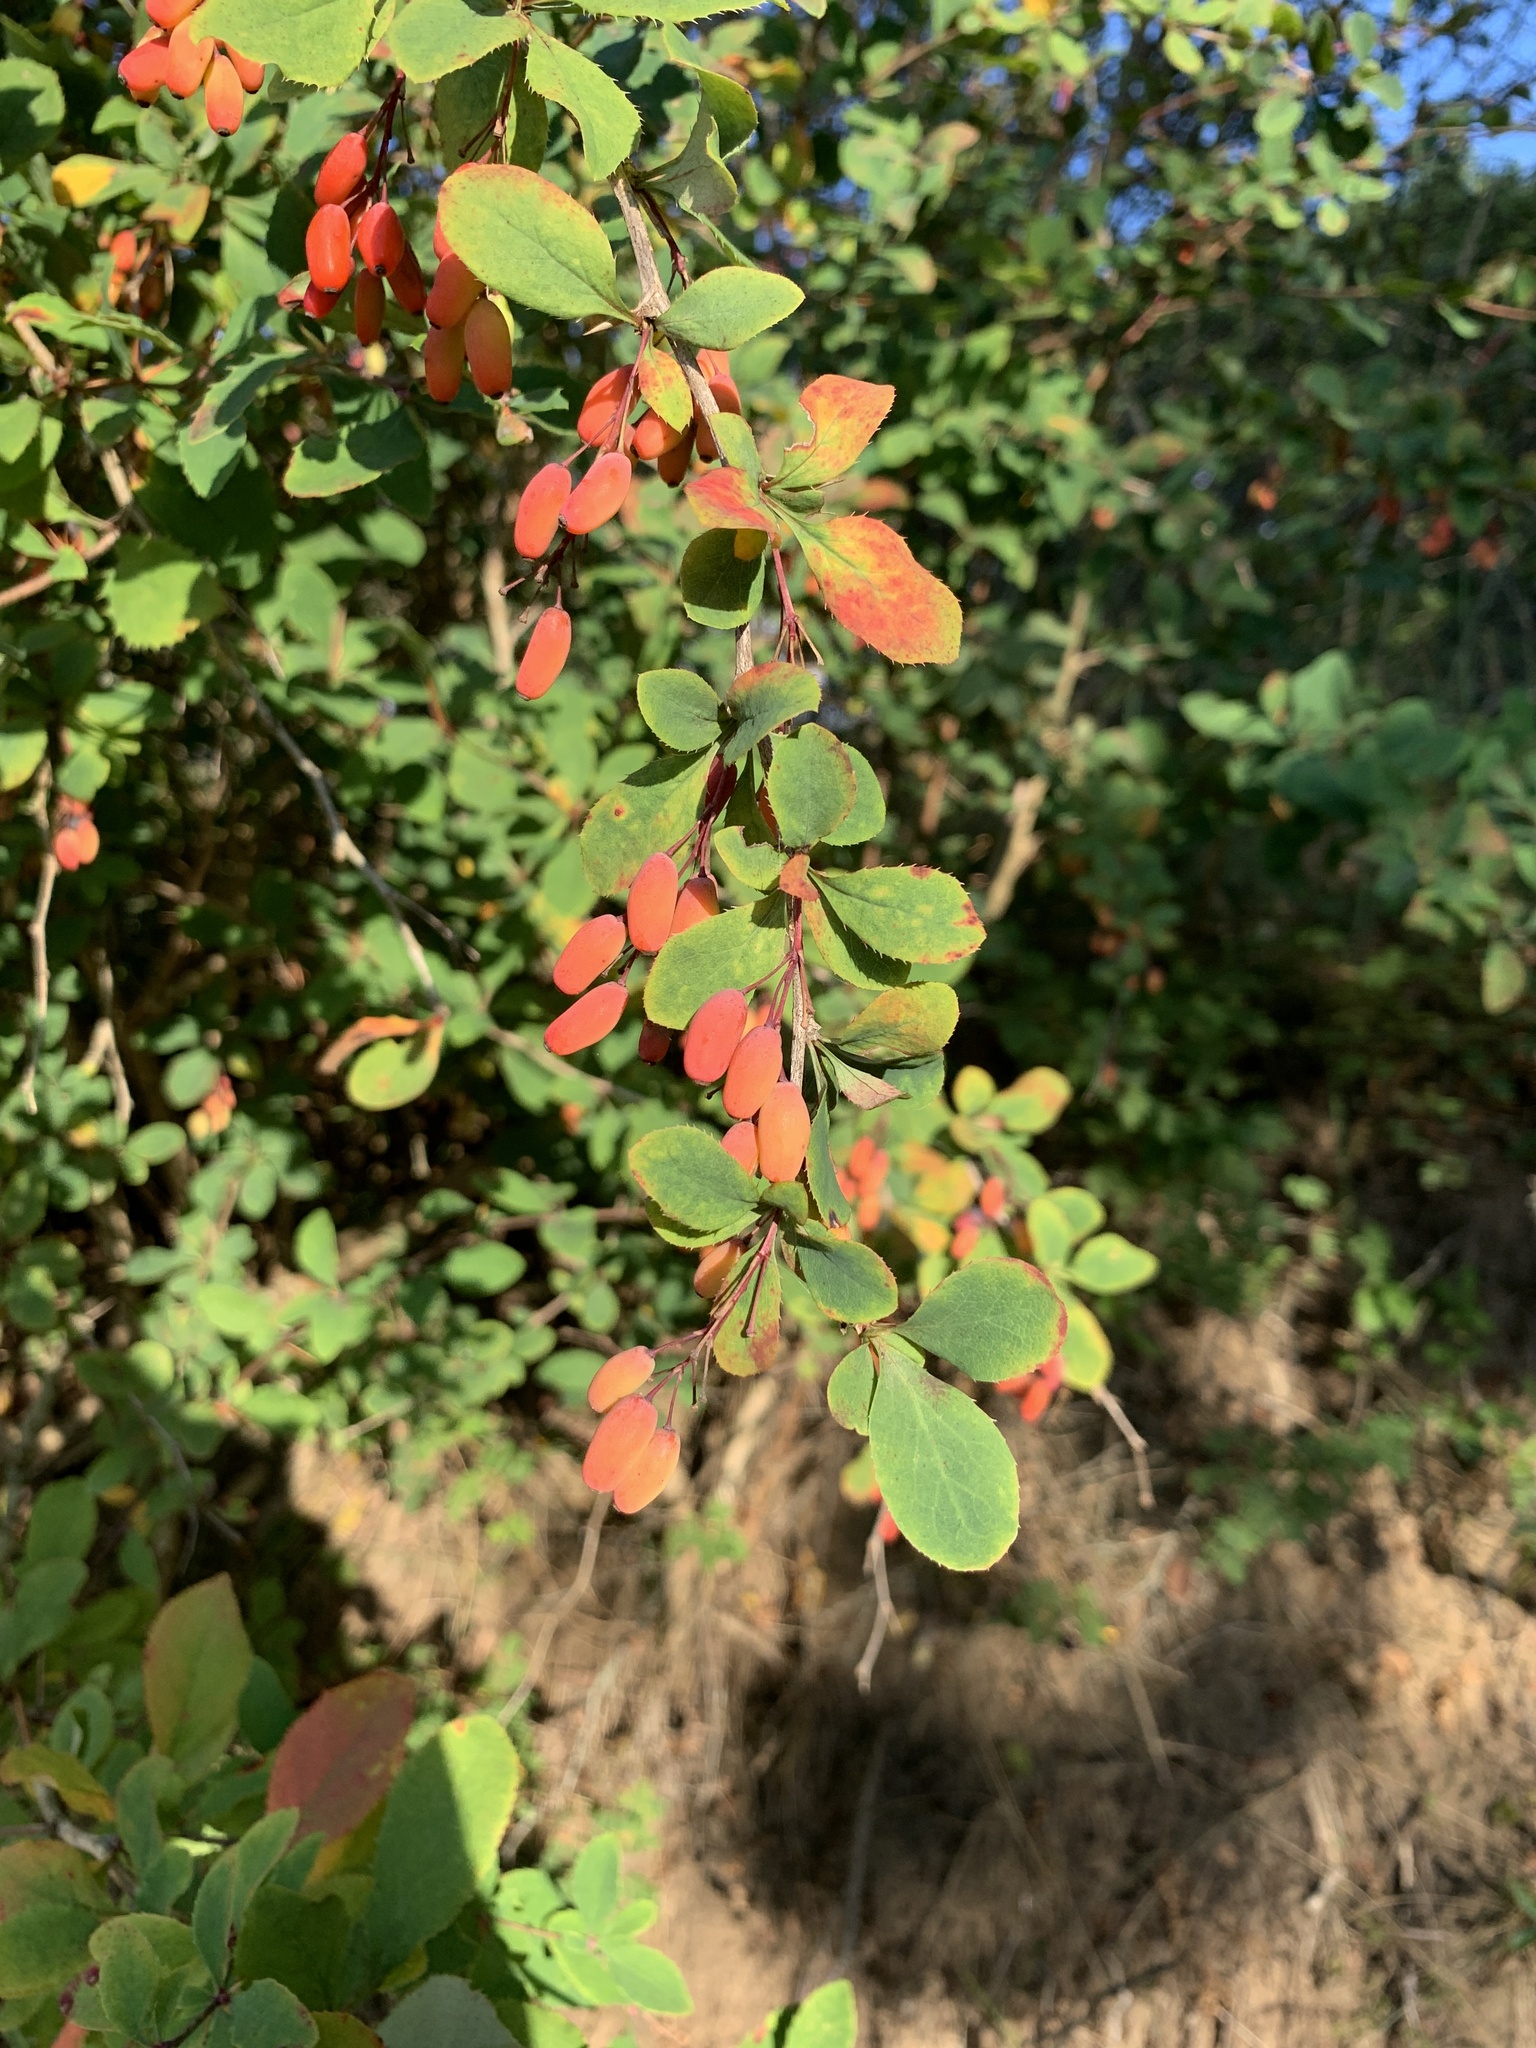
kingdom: Plantae
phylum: Tracheophyta
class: Magnoliopsida
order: Ranunculales
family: Berberidaceae
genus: Berberis
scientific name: Berberis vulgaris
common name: Barberry
